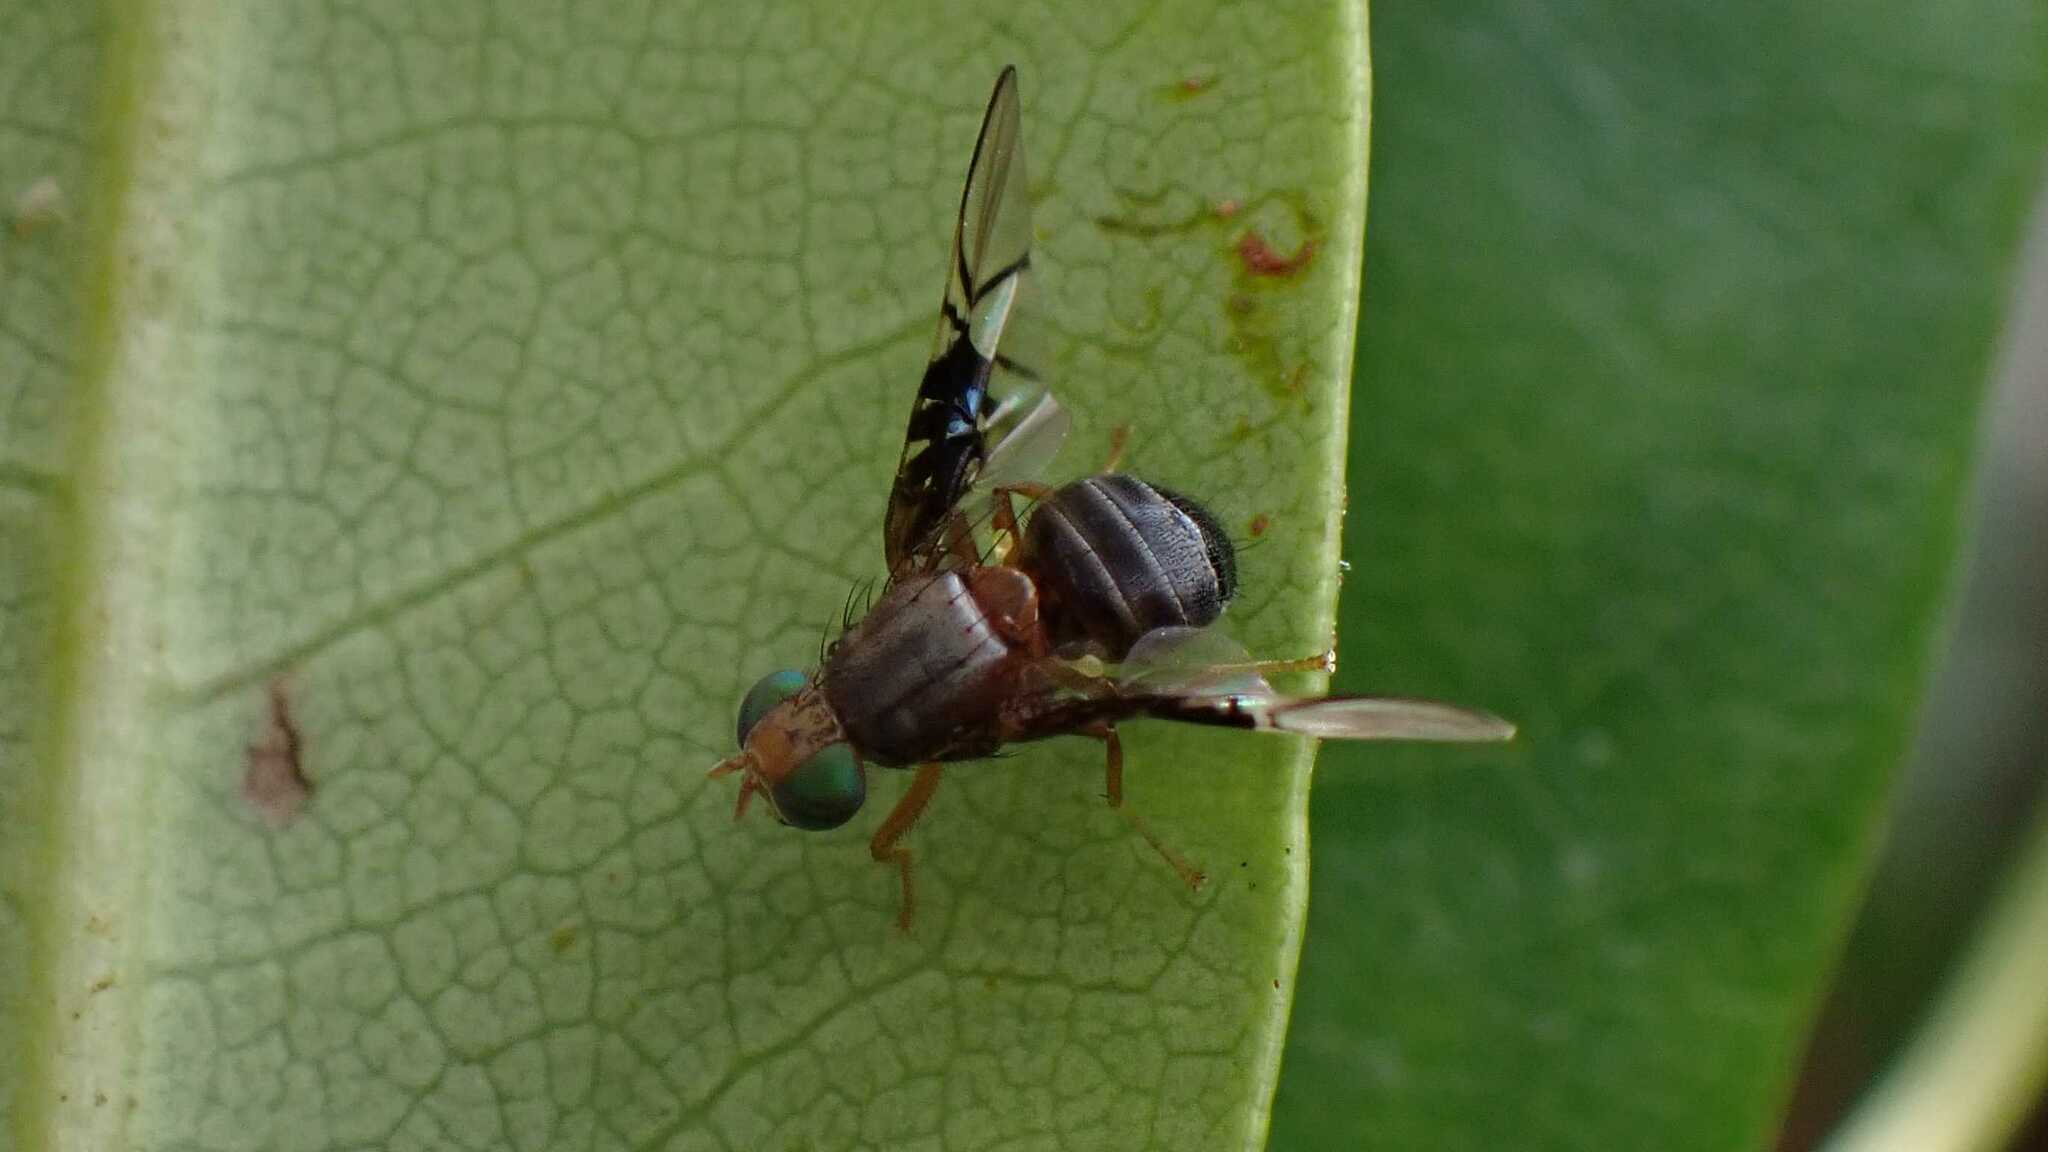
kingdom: Animalia
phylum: Arthropoda
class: Insecta
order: Diptera
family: Tephritidae
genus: Anomoia
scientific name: Anomoia purmunda
